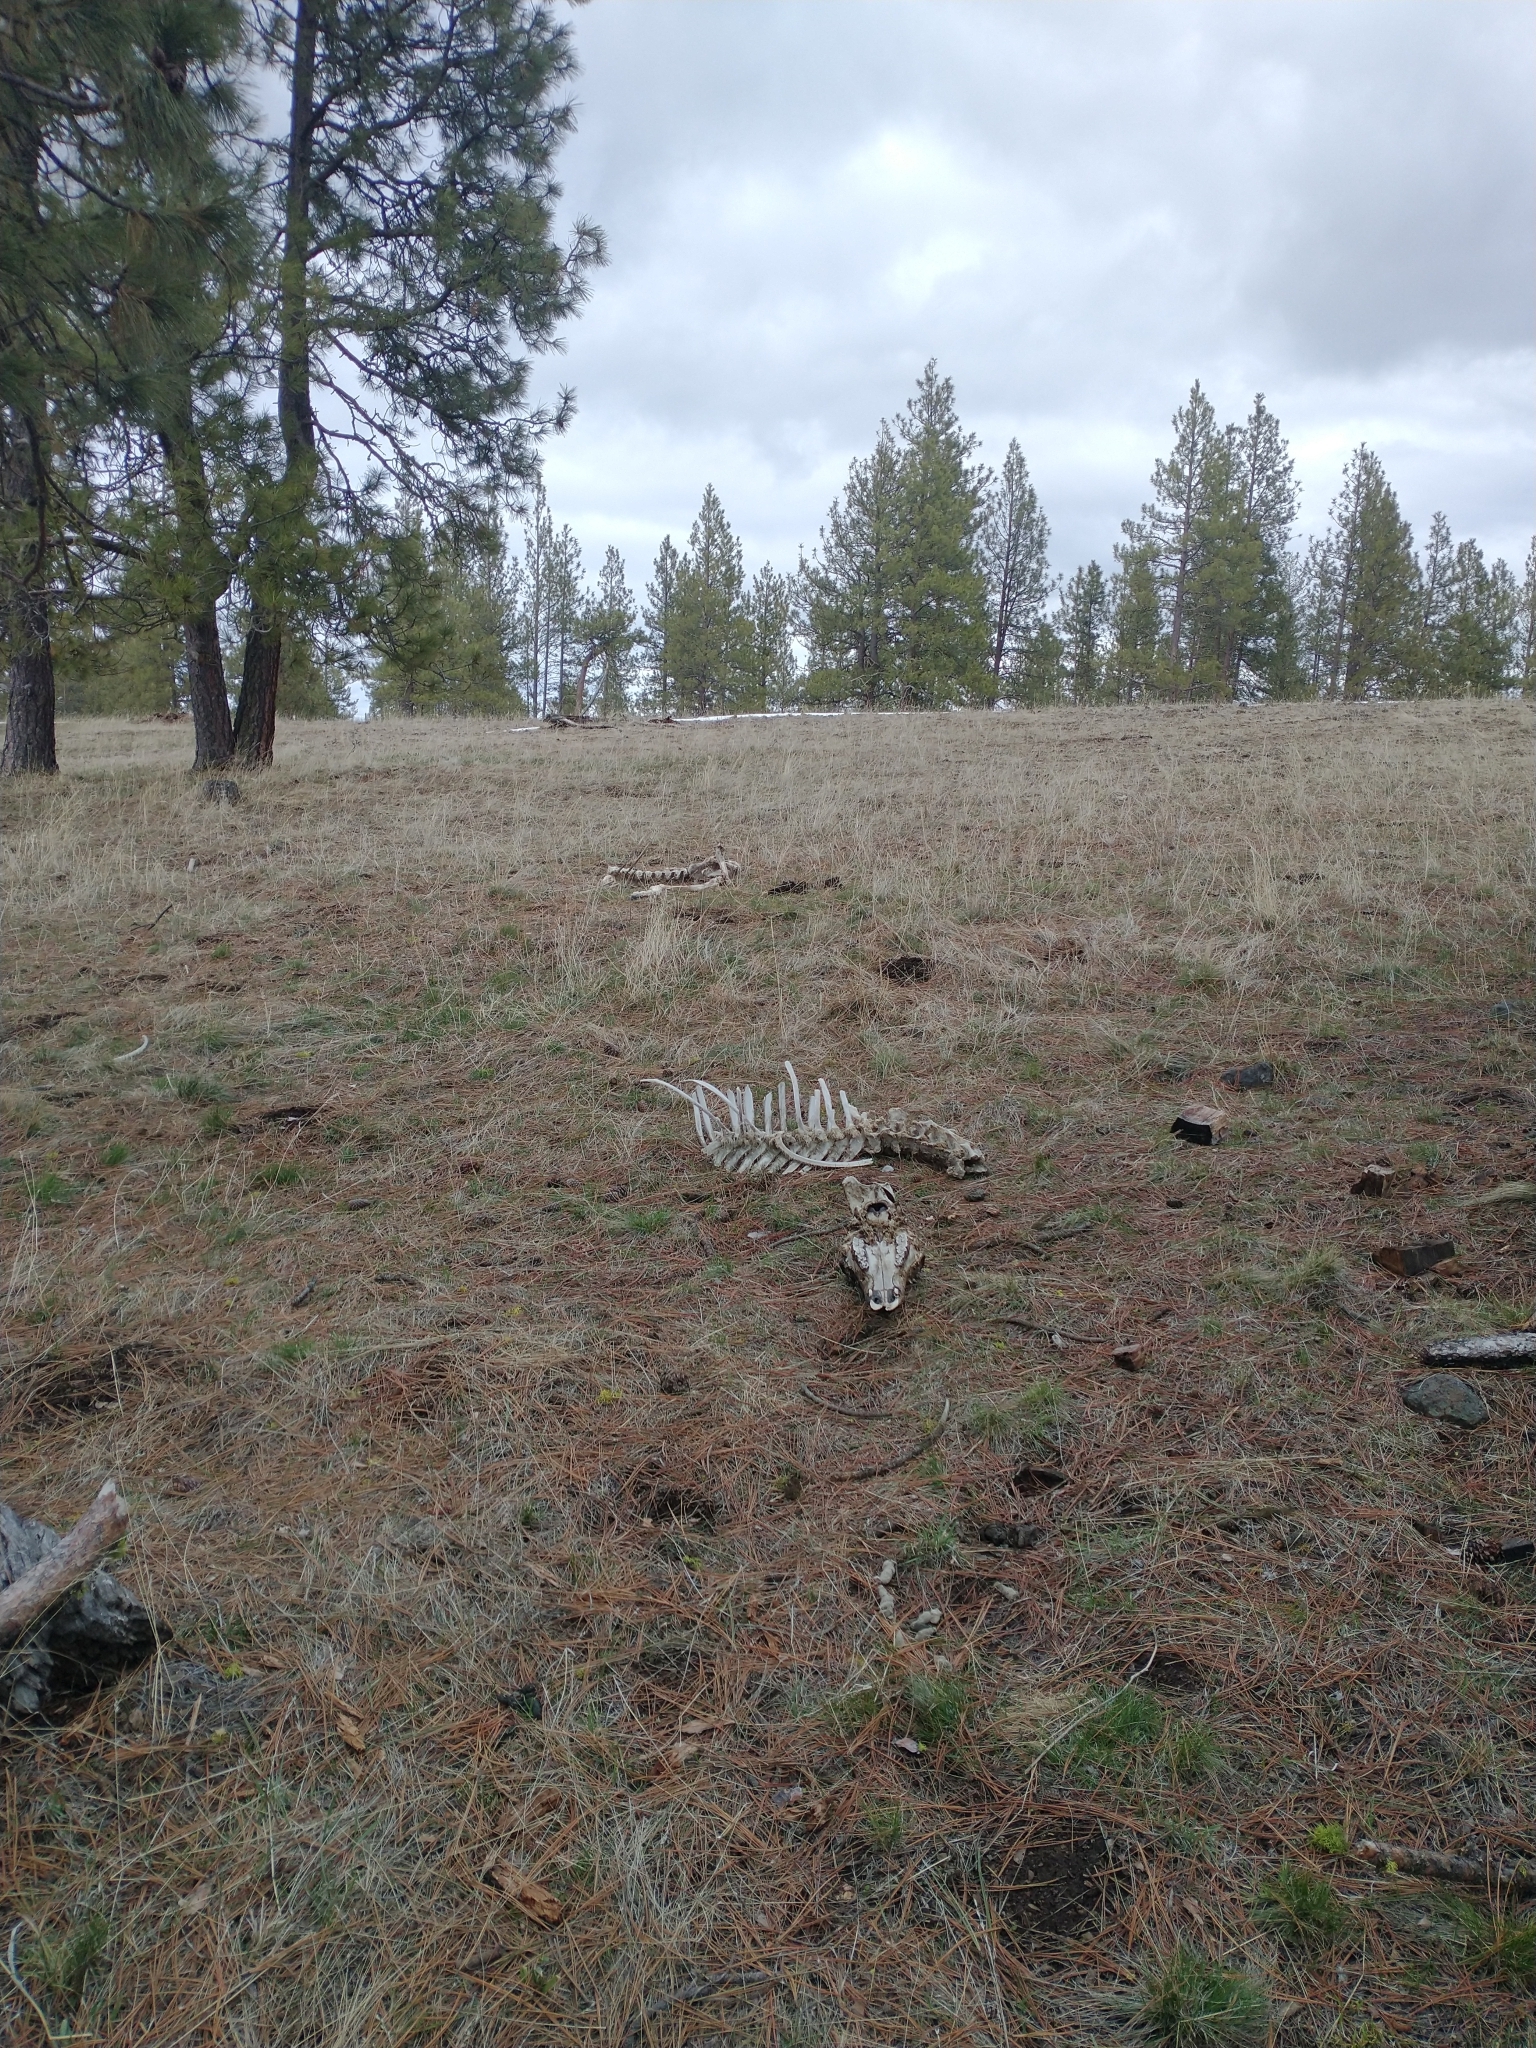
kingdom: Animalia
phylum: Chordata
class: Mammalia
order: Artiodactyla
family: Cervidae
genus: Cervus
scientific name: Cervus elaphus
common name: Red deer
